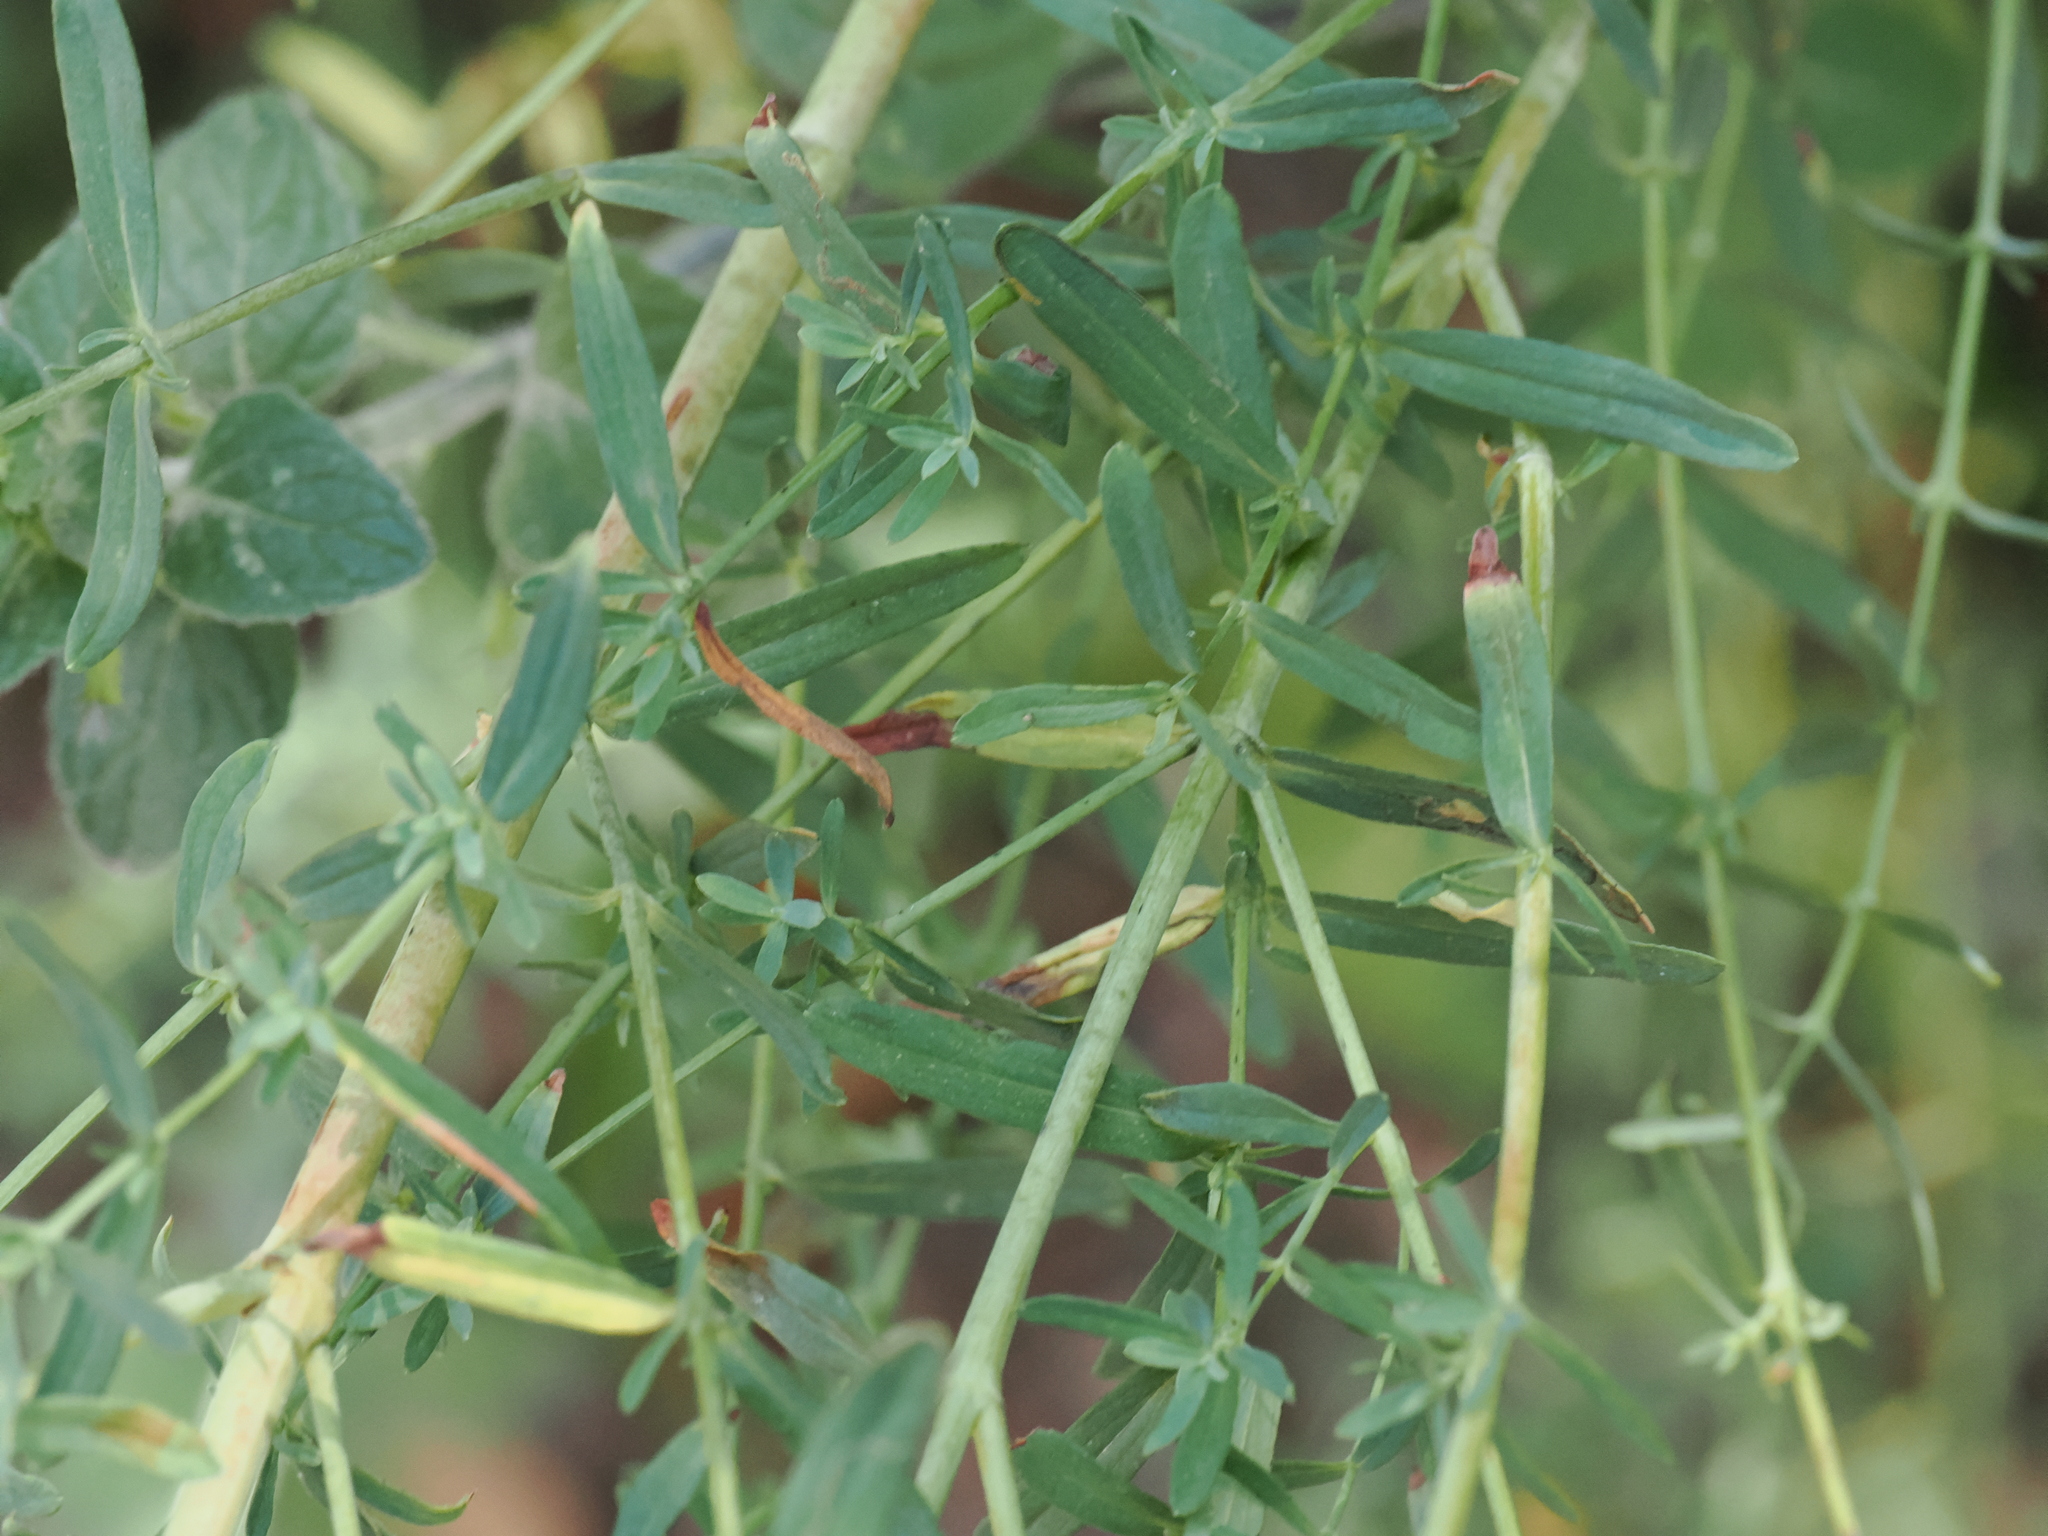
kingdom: Plantae
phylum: Tracheophyta
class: Magnoliopsida
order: Malpighiales
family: Hypericaceae
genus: Hypericum
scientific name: Hypericum perforatum
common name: Common st. johnswort
